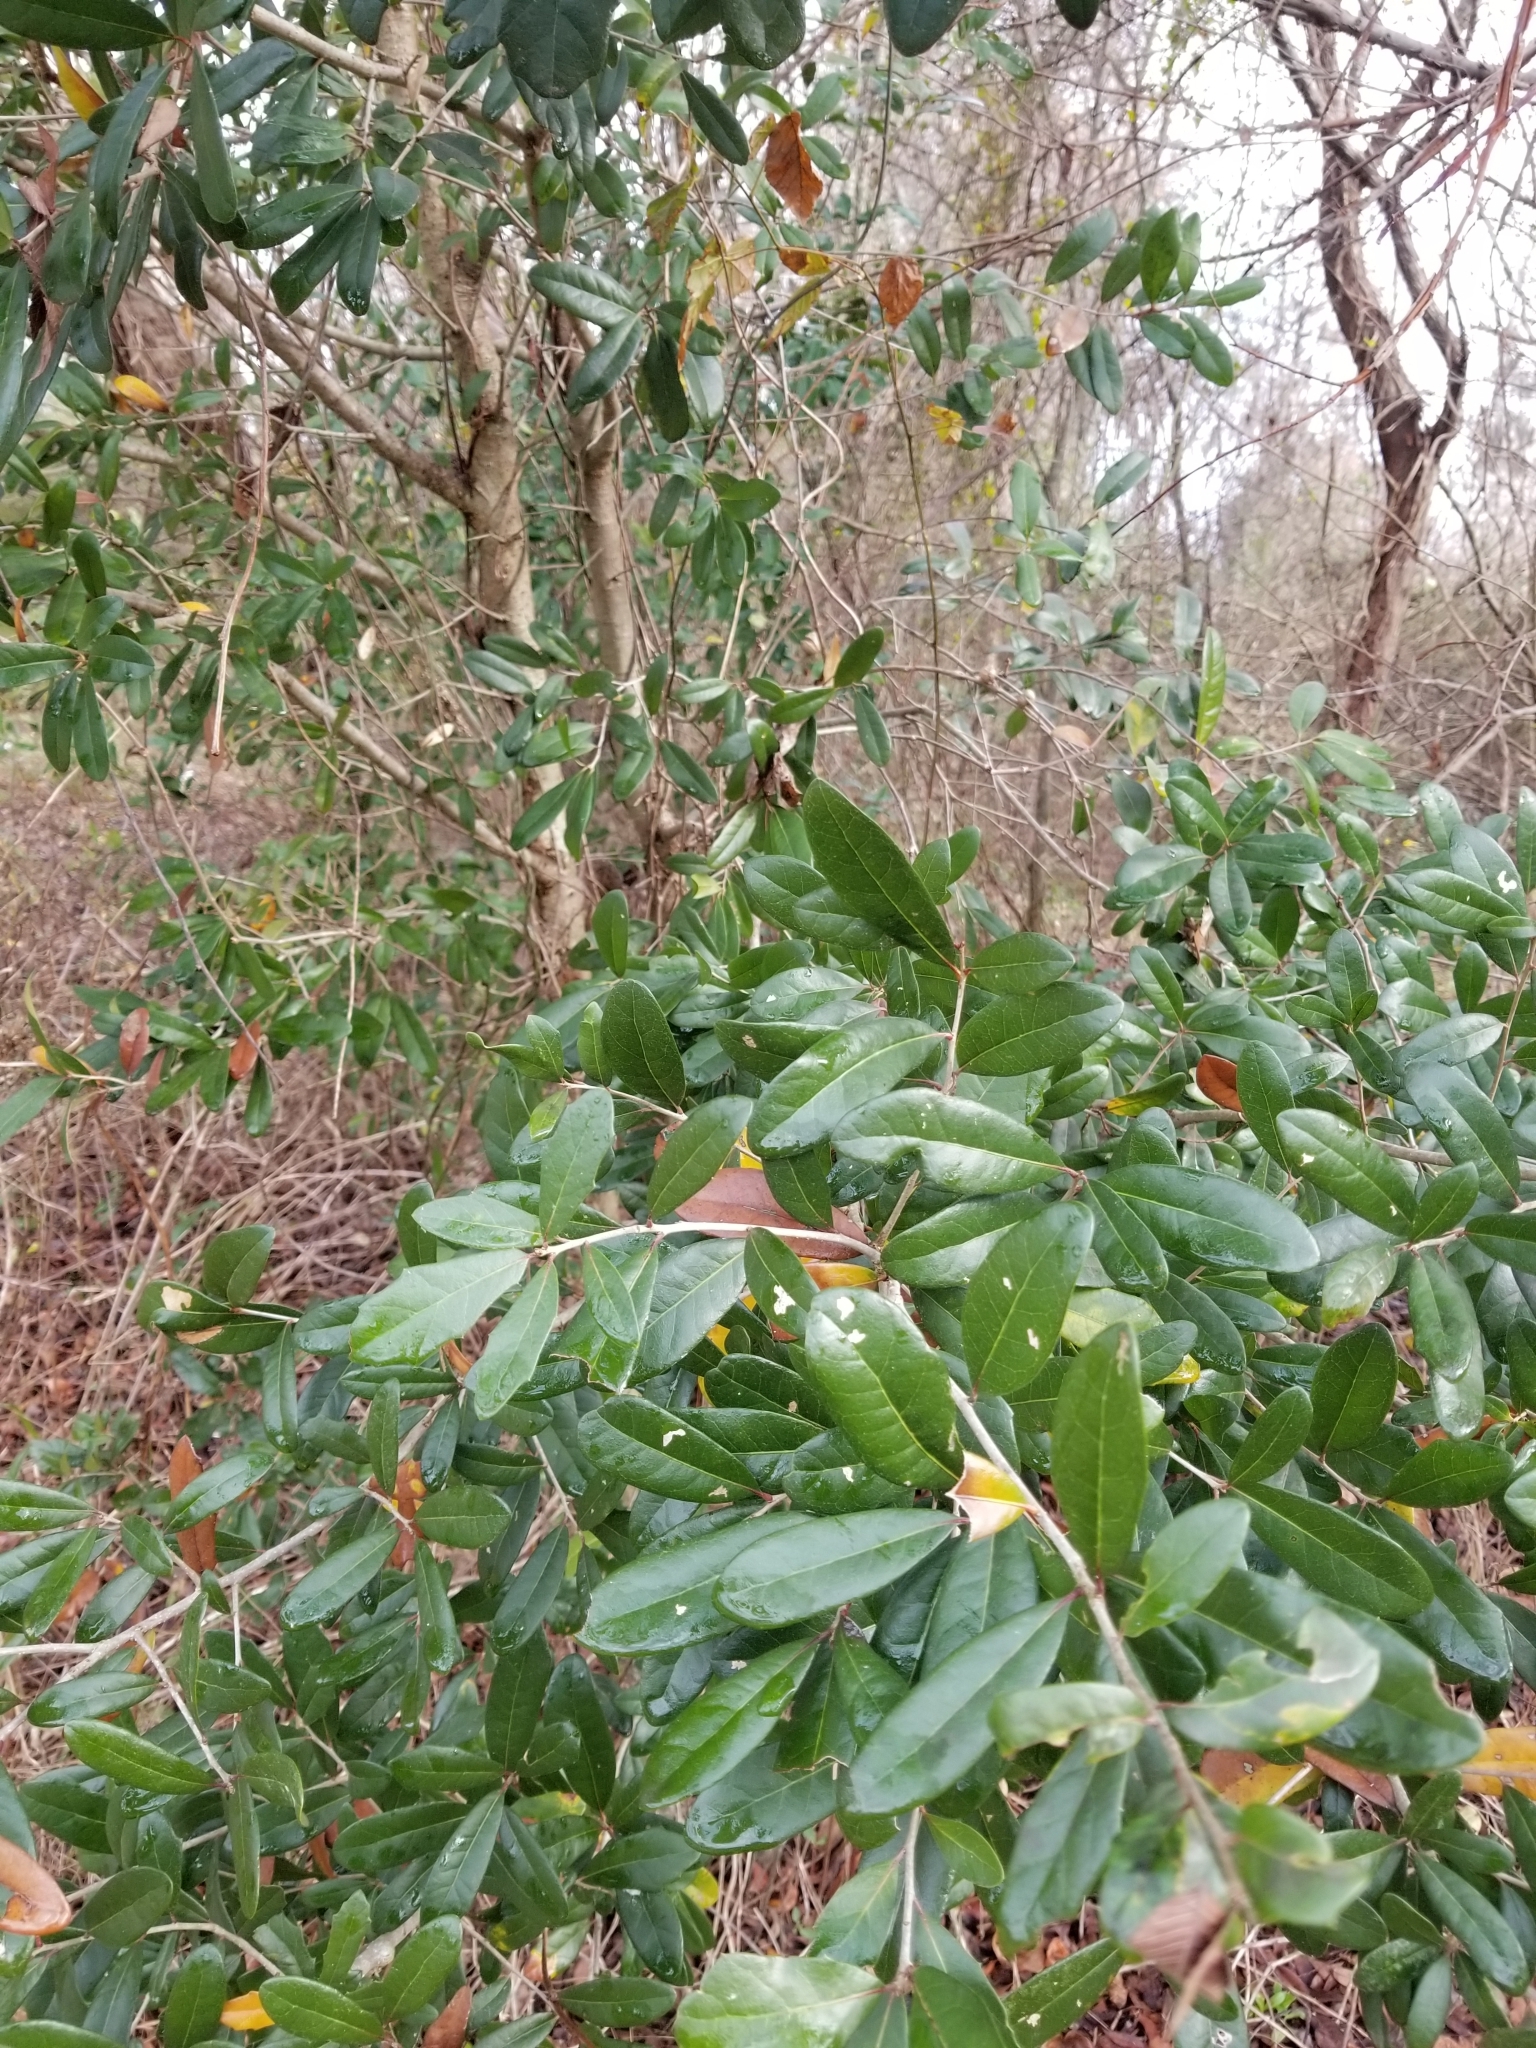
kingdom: Plantae
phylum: Tracheophyta
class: Magnoliopsida
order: Fagales
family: Fagaceae
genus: Quercus
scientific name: Quercus virginiana
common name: Southern live oak
